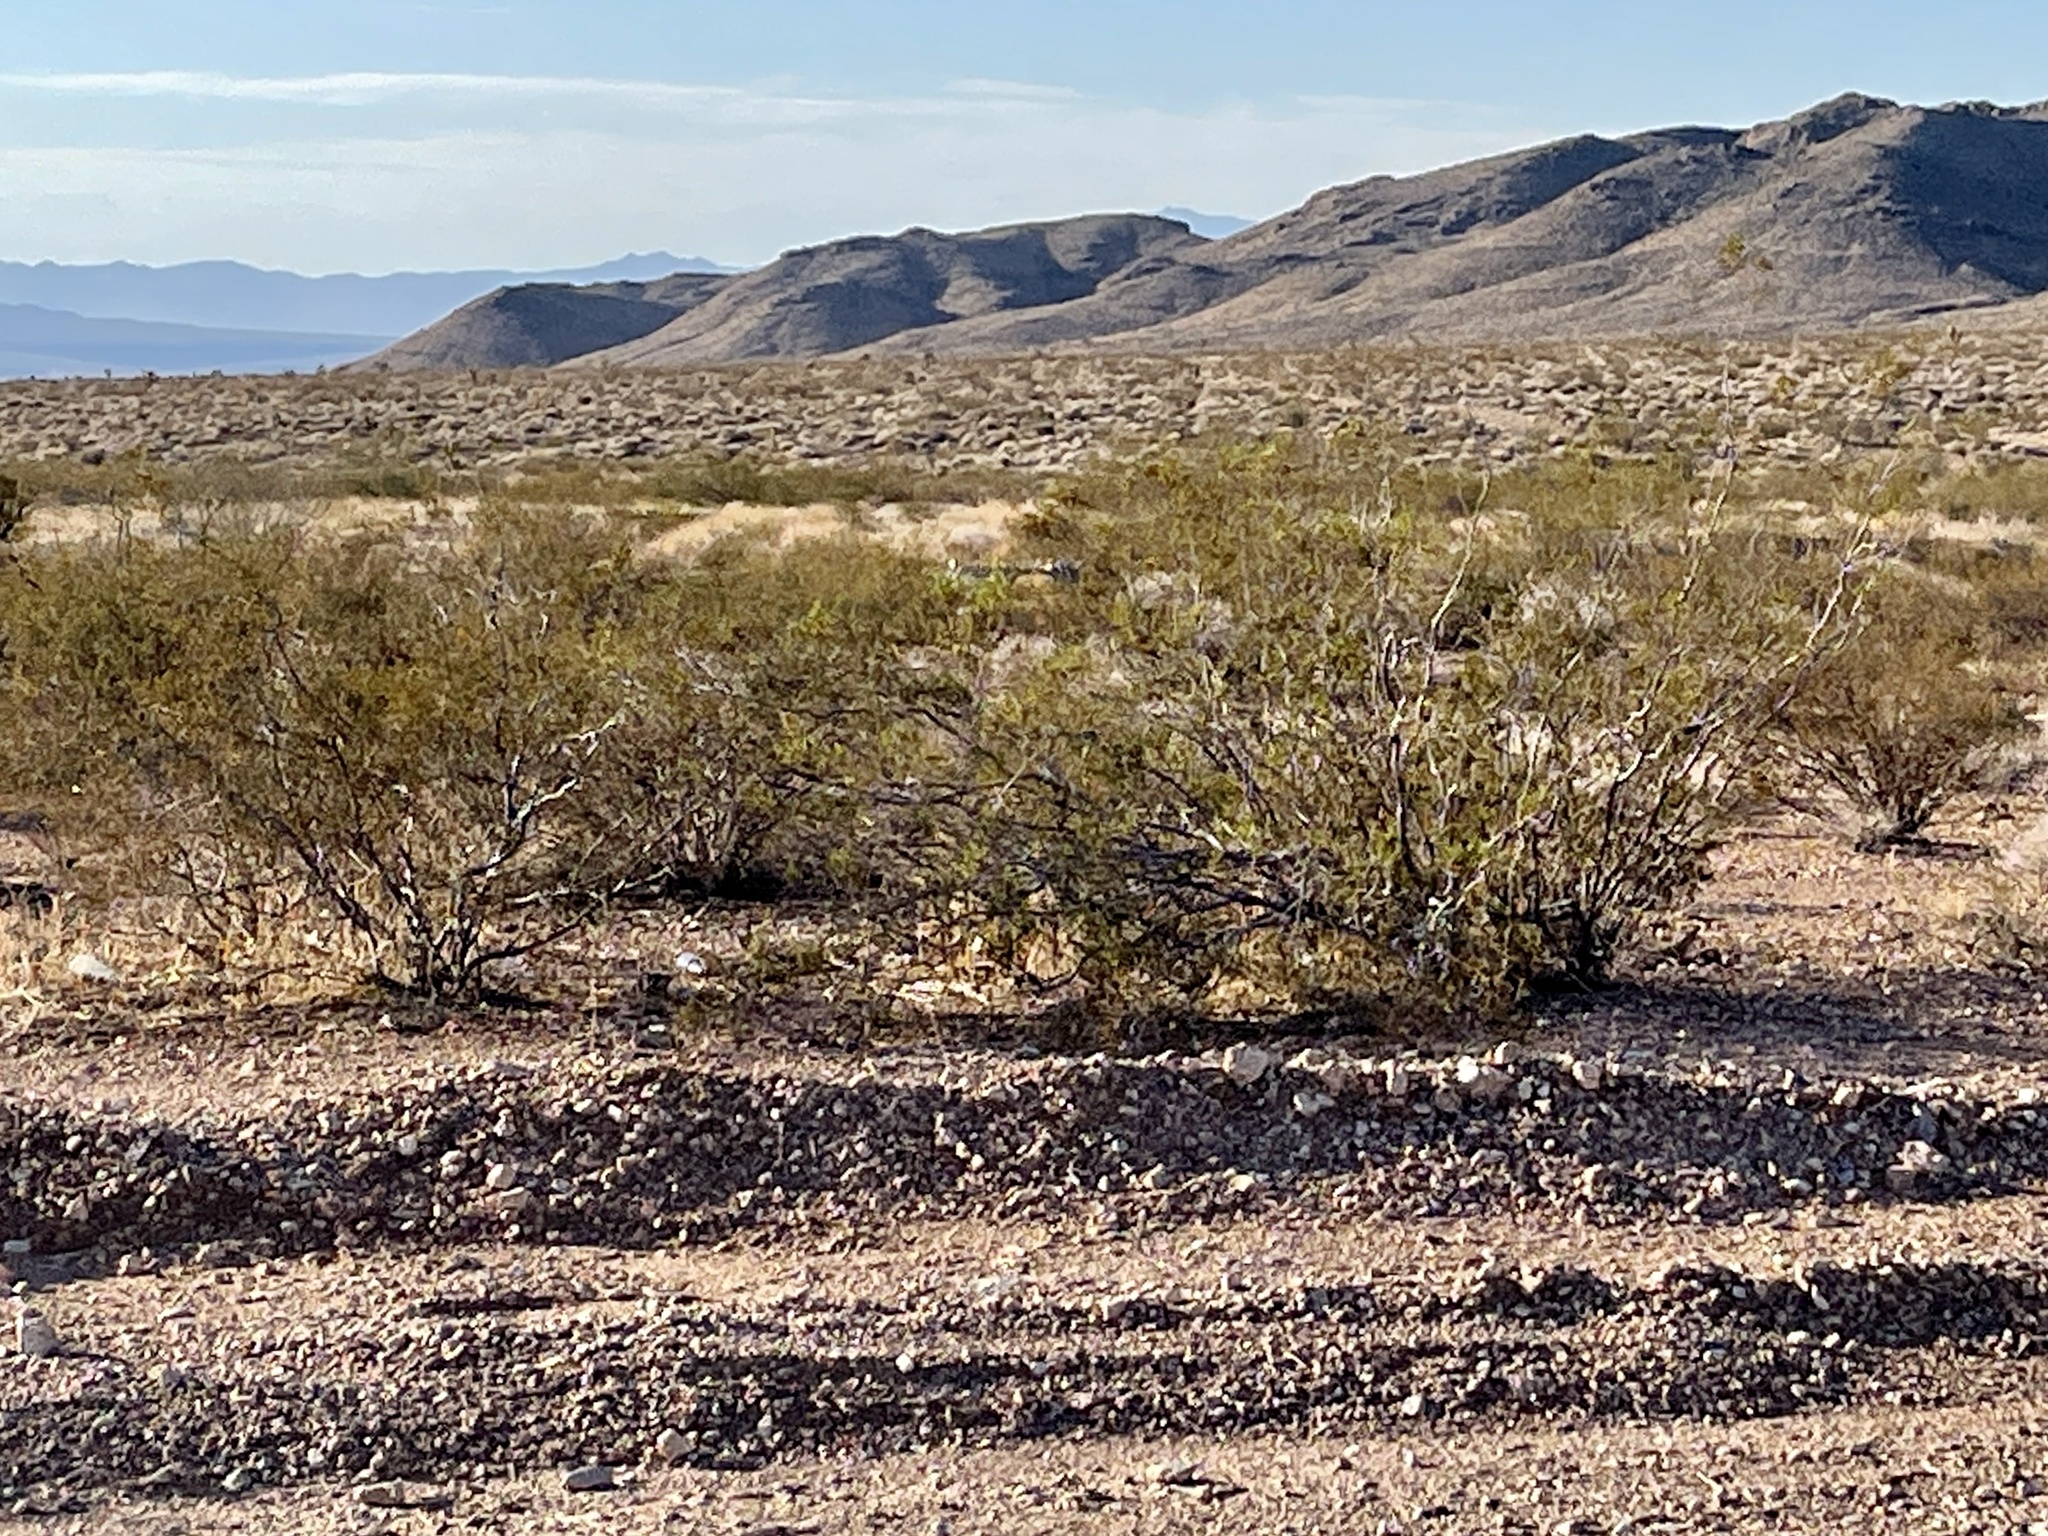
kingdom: Plantae
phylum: Tracheophyta
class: Magnoliopsida
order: Zygophyllales
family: Zygophyllaceae
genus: Larrea
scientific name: Larrea tridentata
